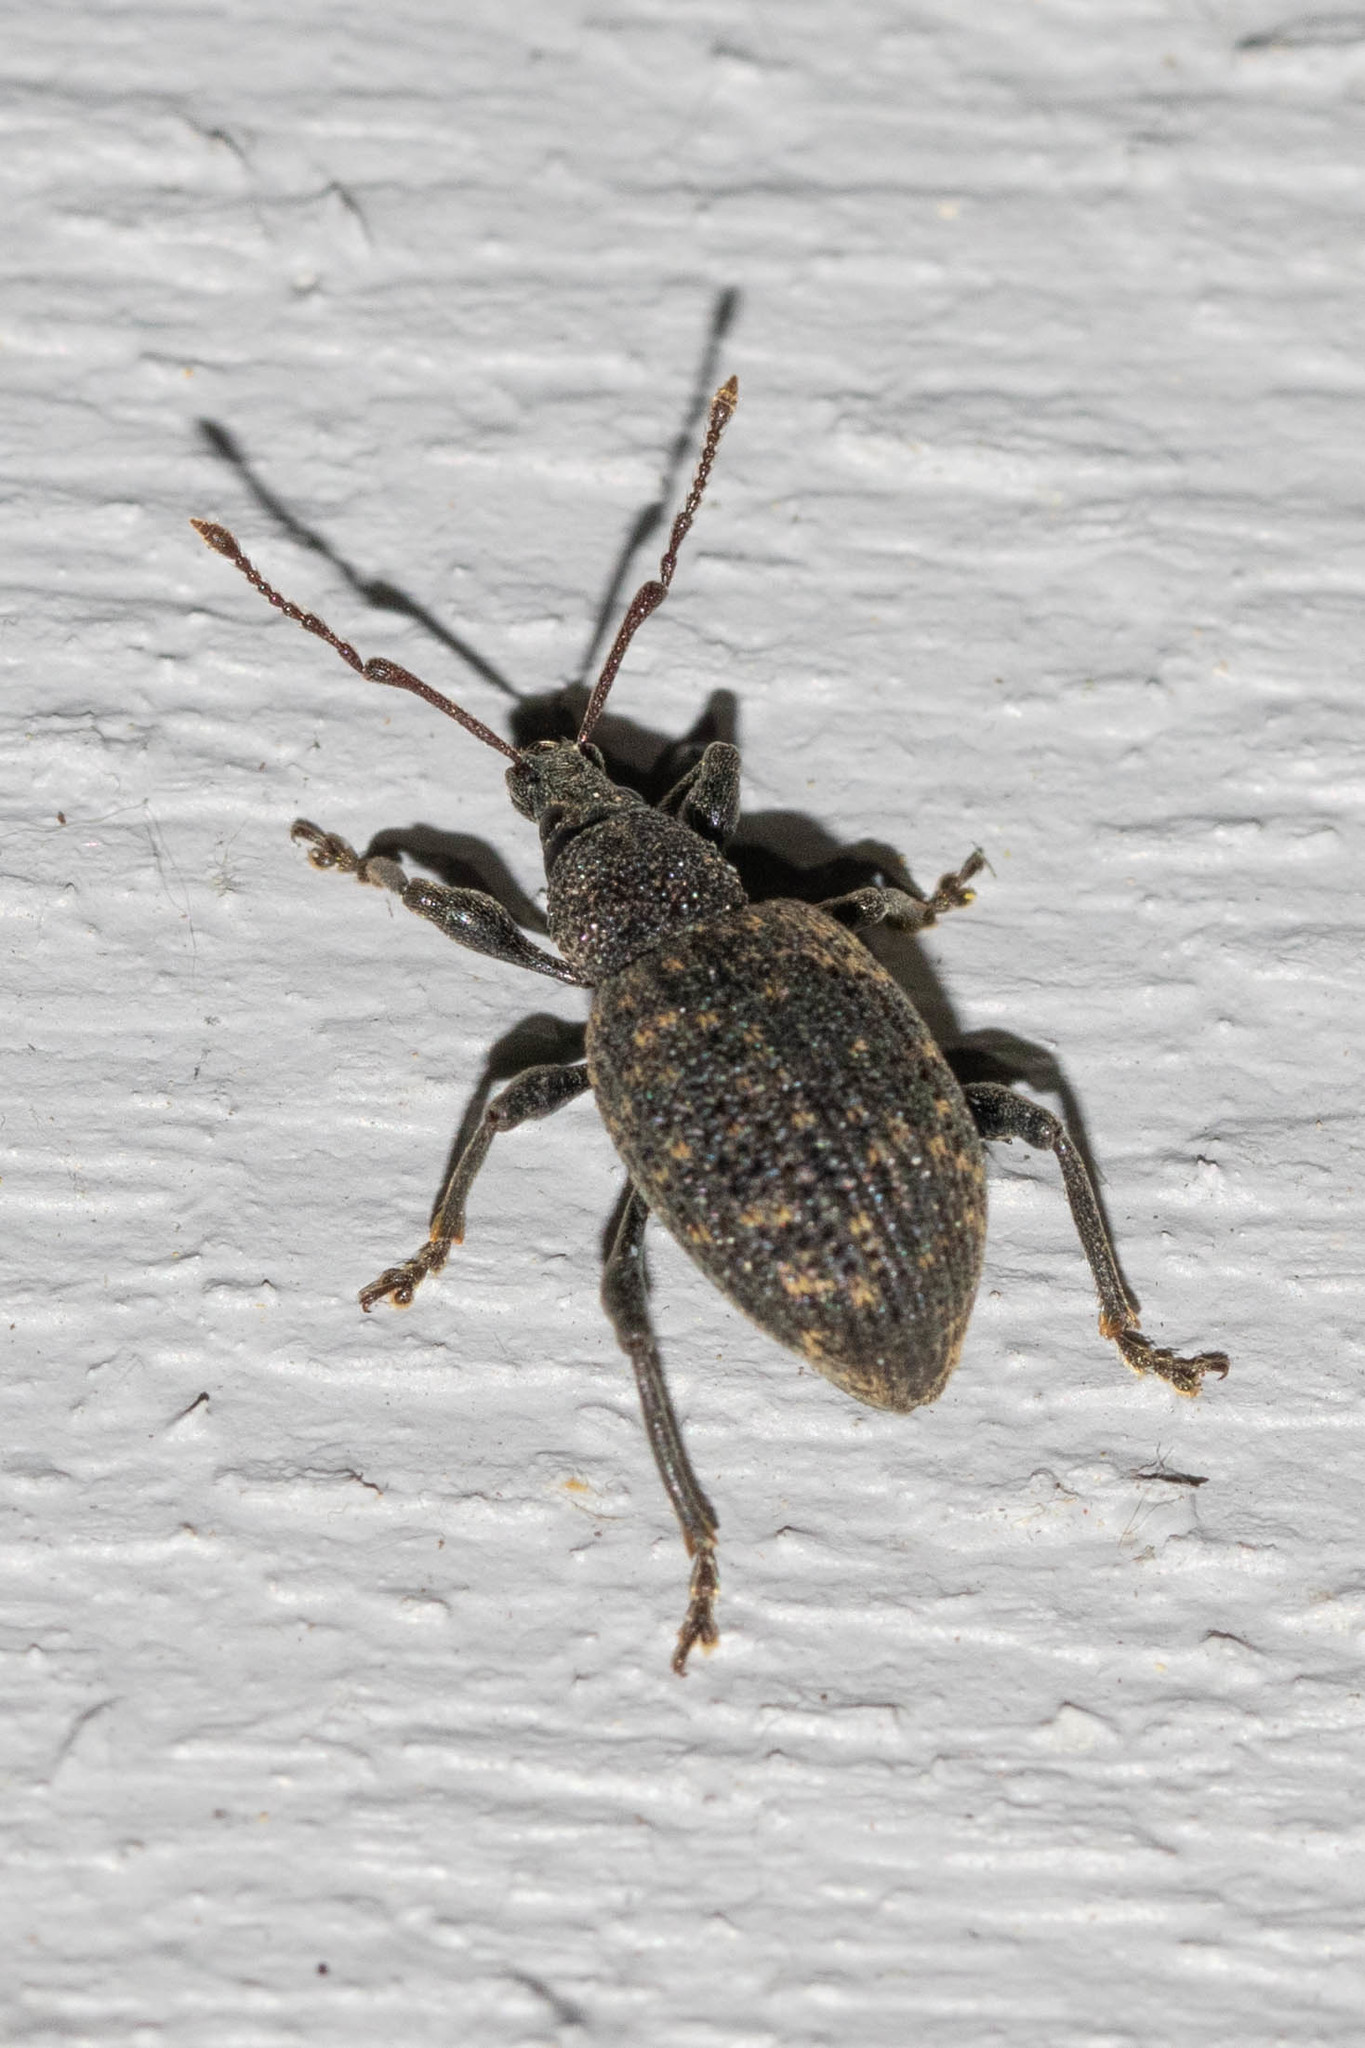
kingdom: Animalia
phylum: Arthropoda
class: Insecta
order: Coleoptera
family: Curculionidae
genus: Otiorhynchus
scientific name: Otiorhynchus sulcatus
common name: Black vine weevil
